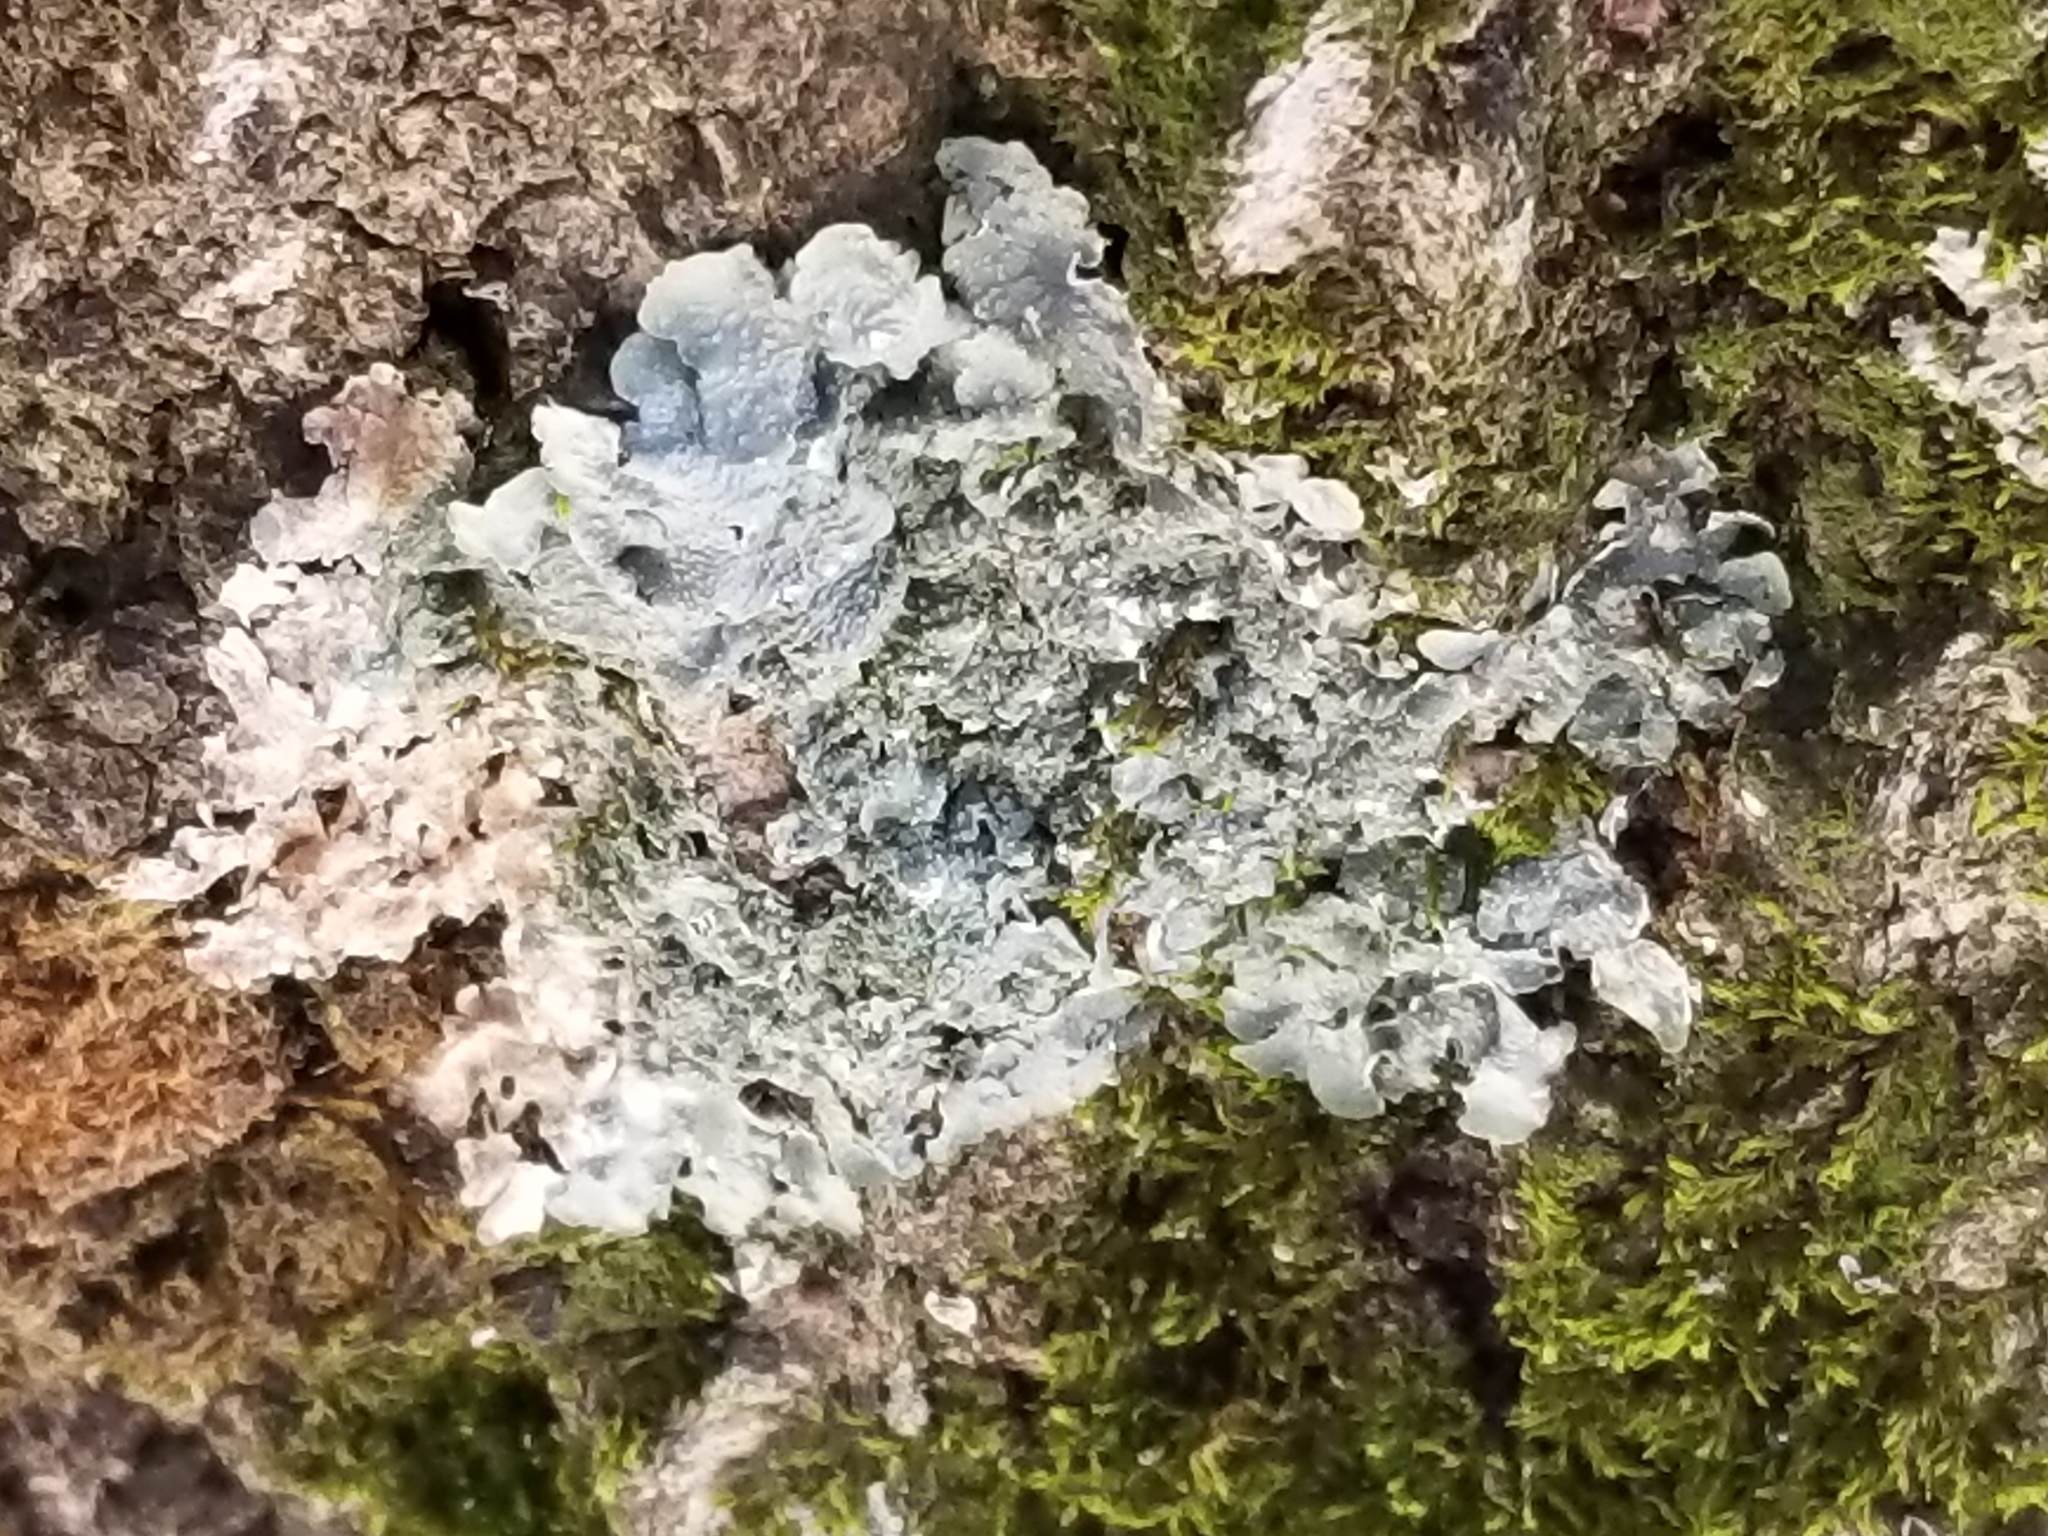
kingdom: Fungi
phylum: Ascomycota
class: Lecanoromycetes
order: Lecanorales
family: Parmeliaceae
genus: Punctelia
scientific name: Punctelia missouriensis
